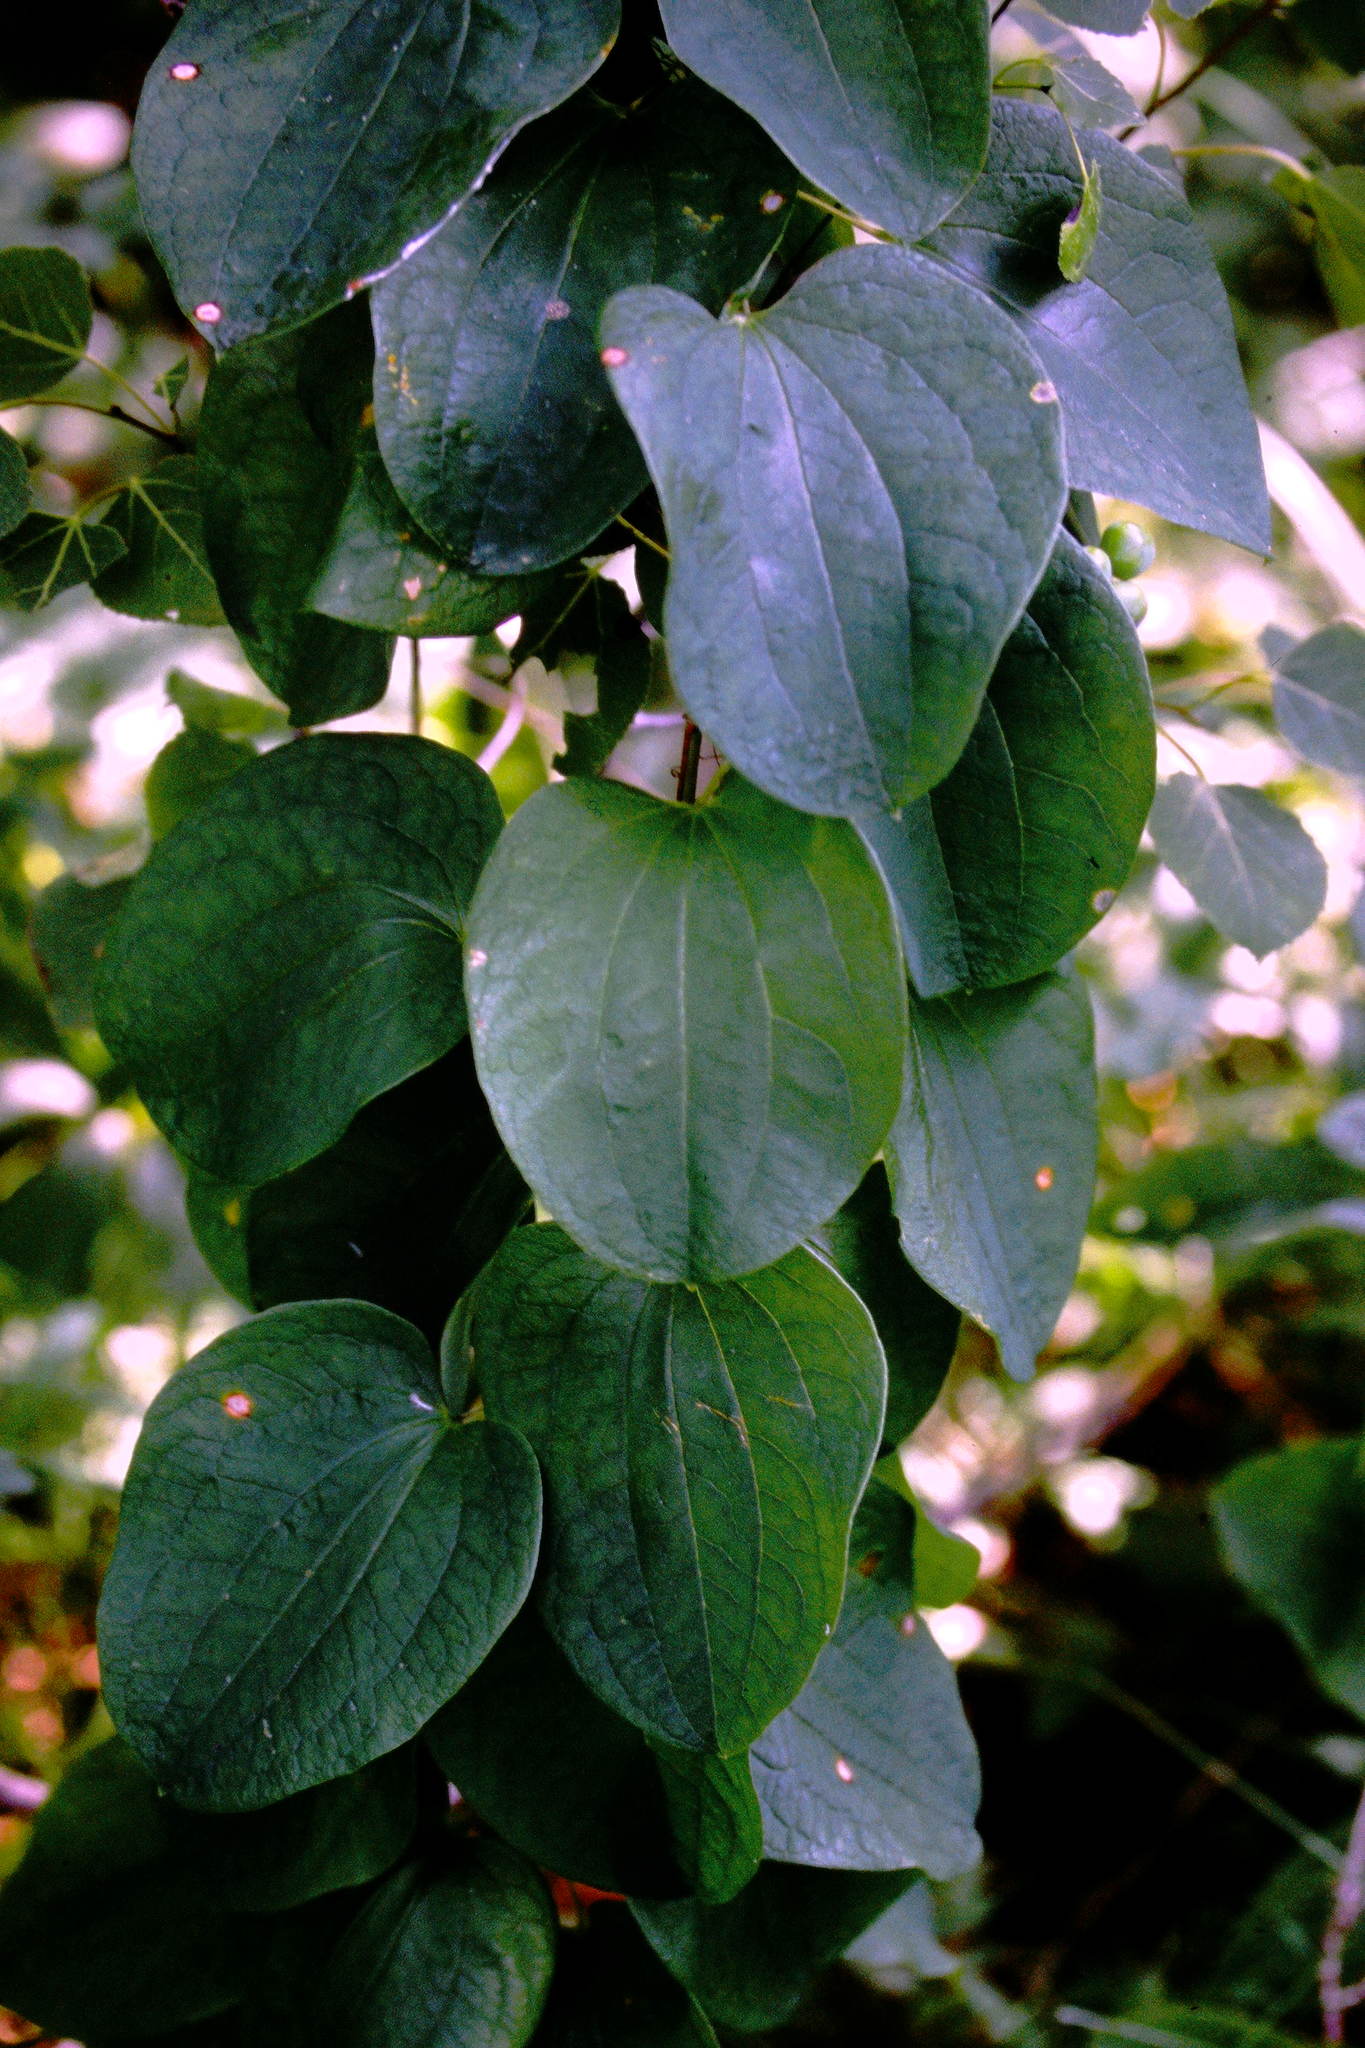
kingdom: Plantae
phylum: Tracheophyta
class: Liliopsida
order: Liliales
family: Smilacaceae
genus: Smilax
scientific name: Smilax lasioneura
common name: Blue ridge carrionflower
